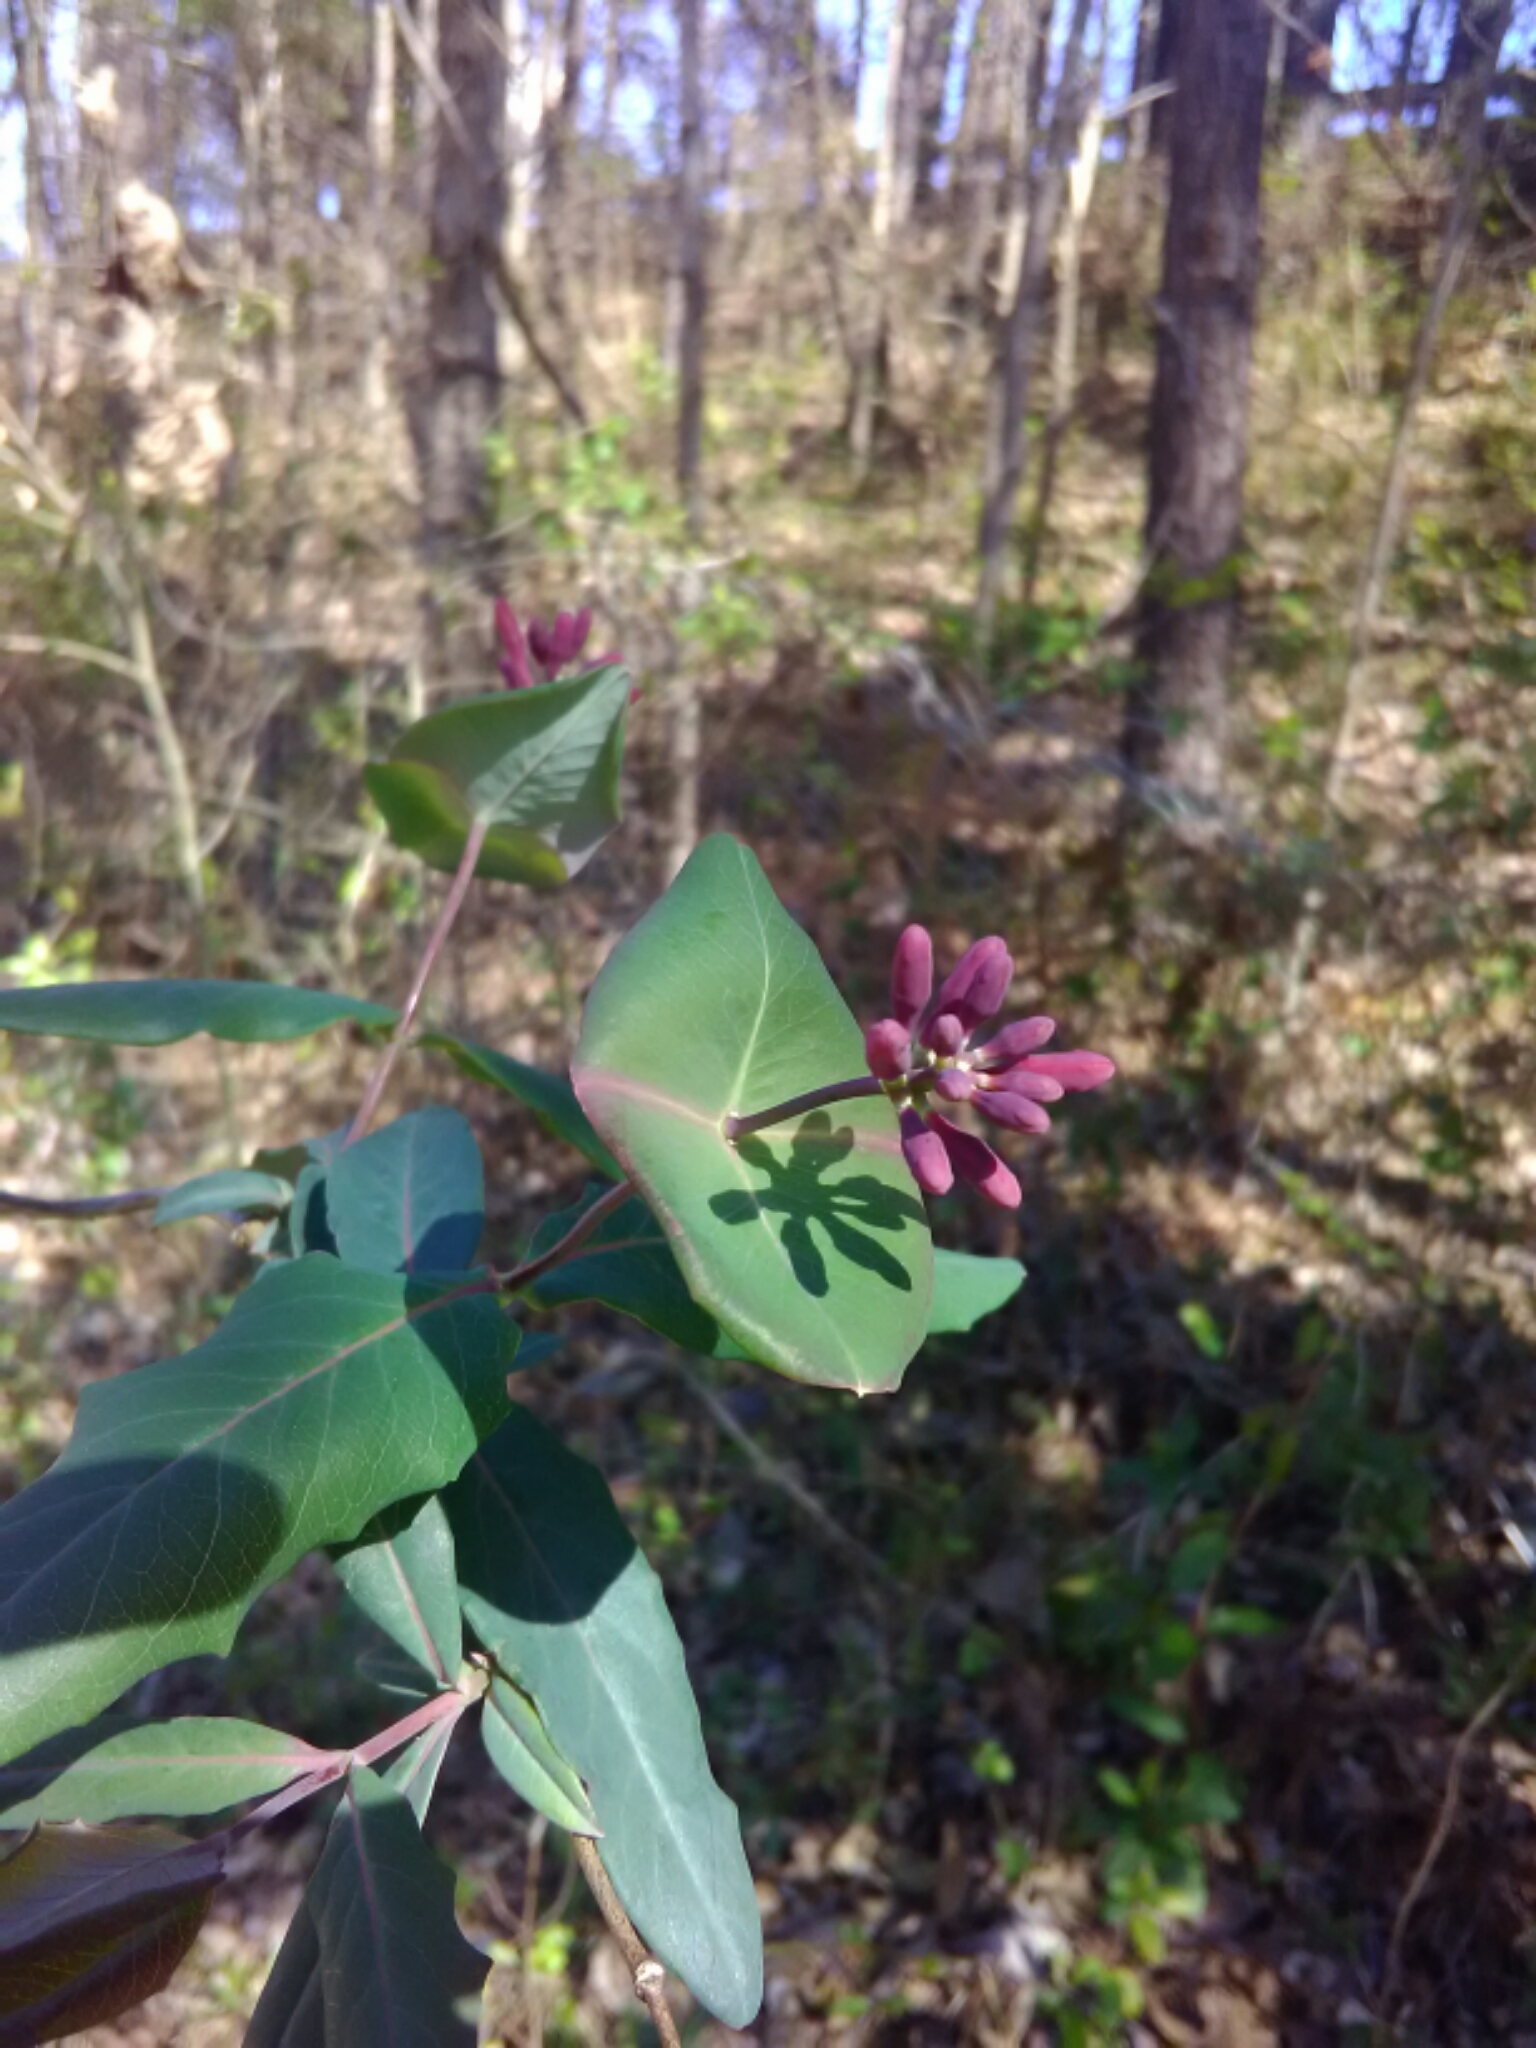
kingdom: Plantae
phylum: Tracheophyta
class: Magnoliopsida
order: Dipsacales
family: Caprifoliaceae
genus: Lonicera
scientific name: Lonicera sempervirens
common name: Coral honeysuckle
